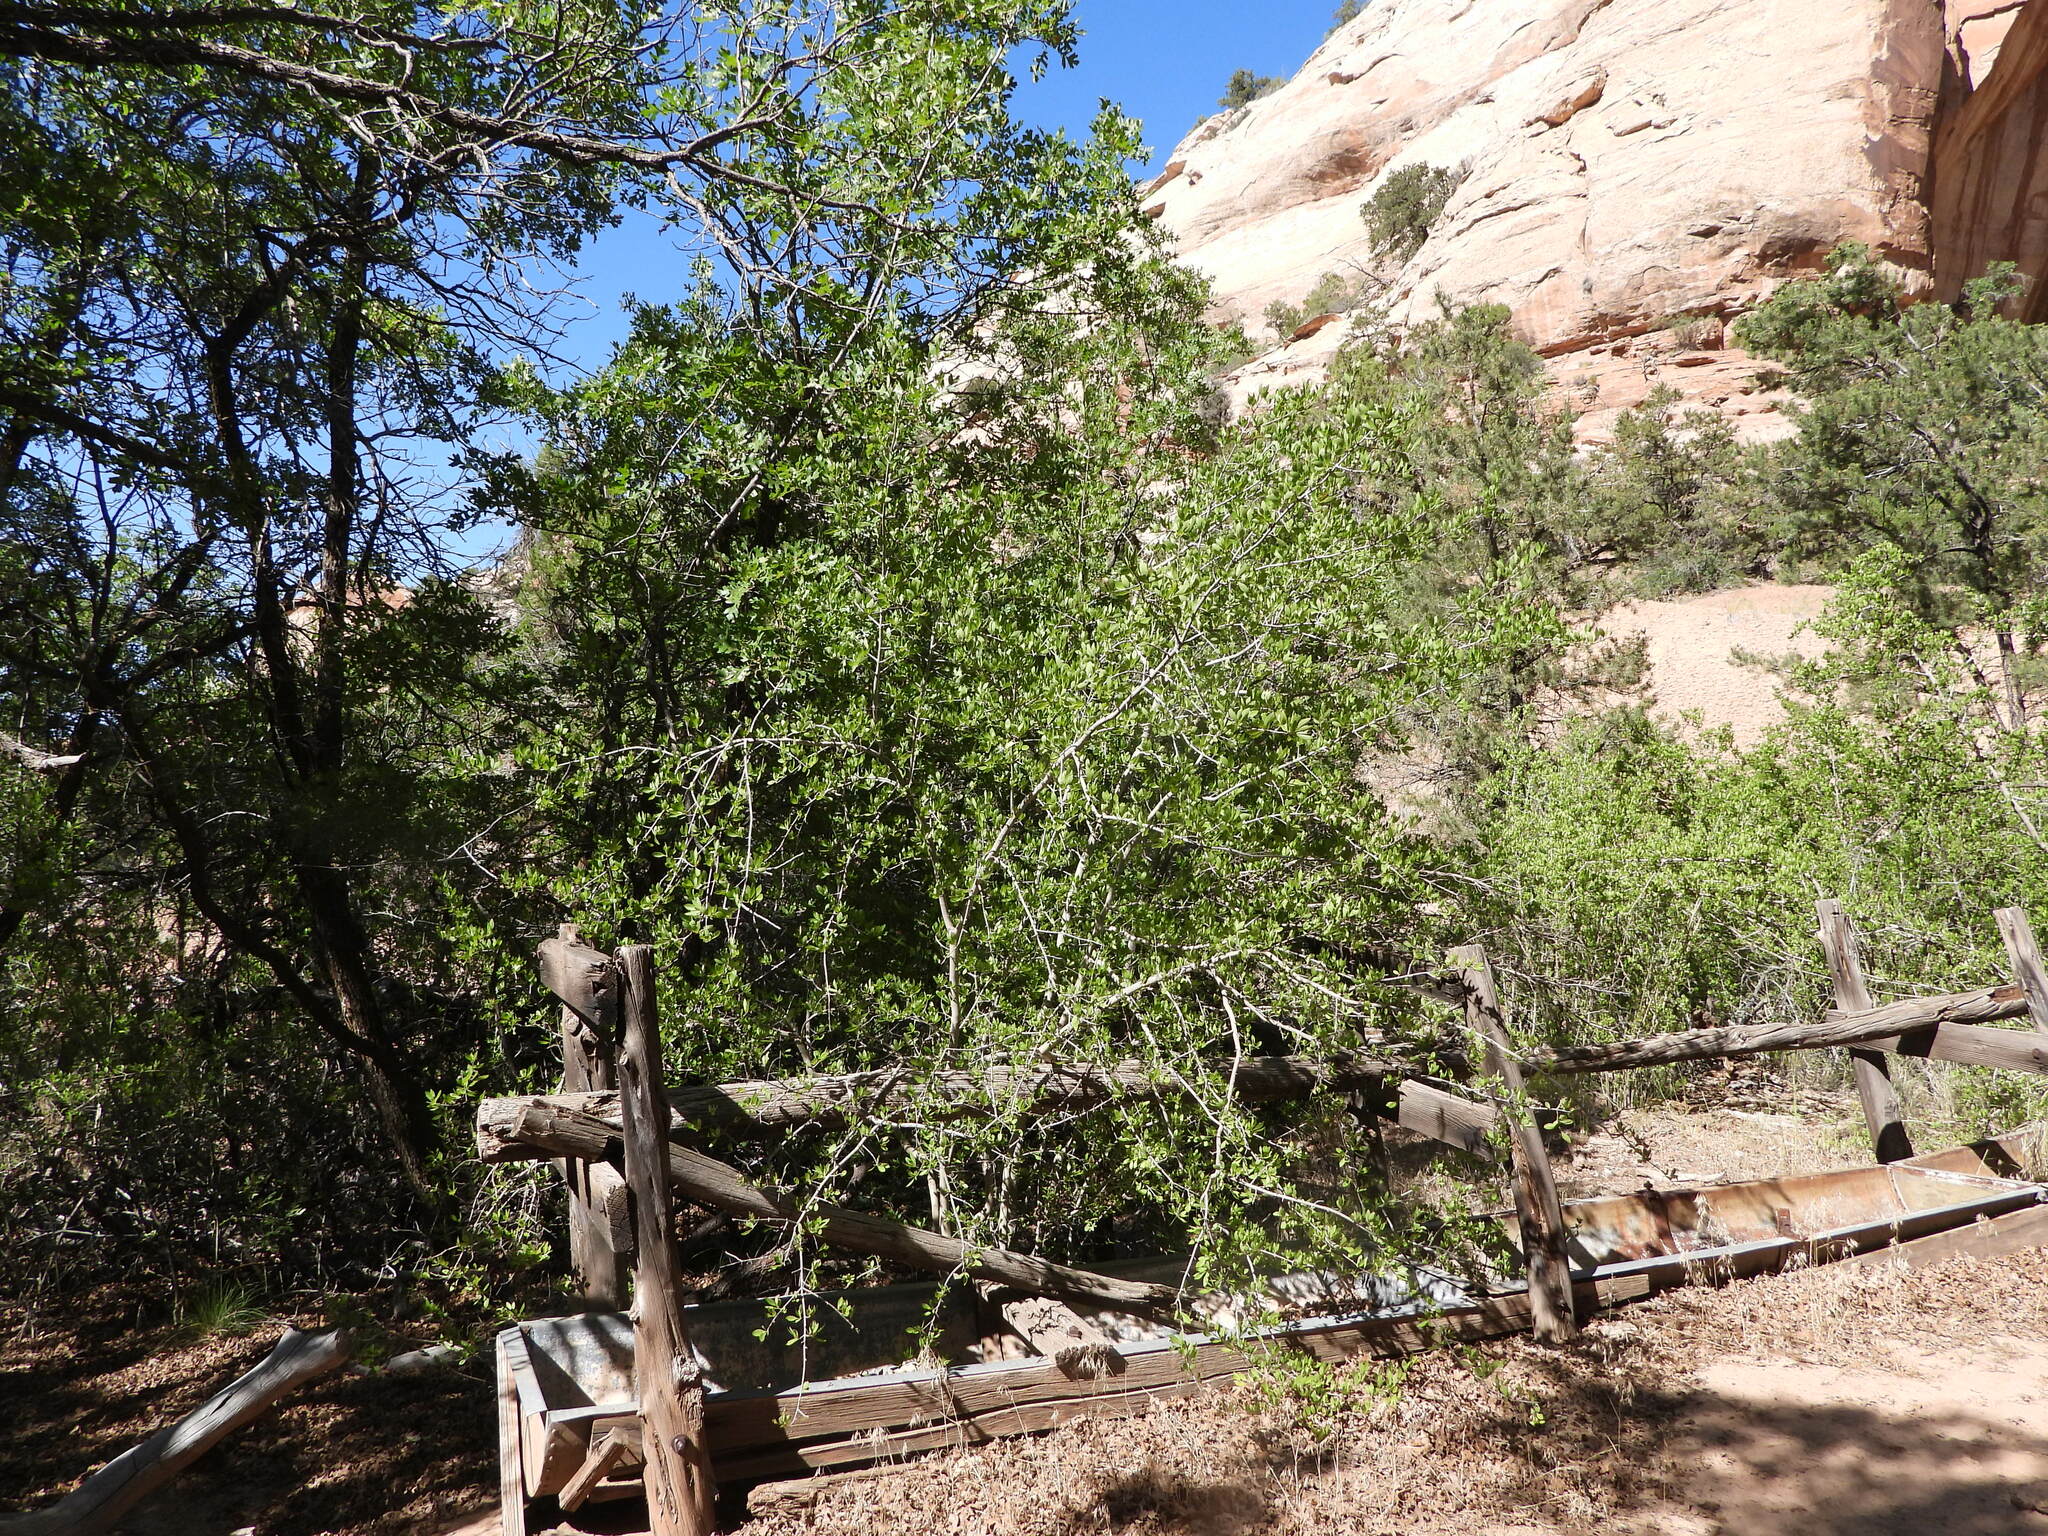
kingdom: Plantae
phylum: Tracheophyta
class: Magnoliopsida
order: Lamiales
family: Oleaceae
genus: Forestiera
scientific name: Forestiera pubescens
